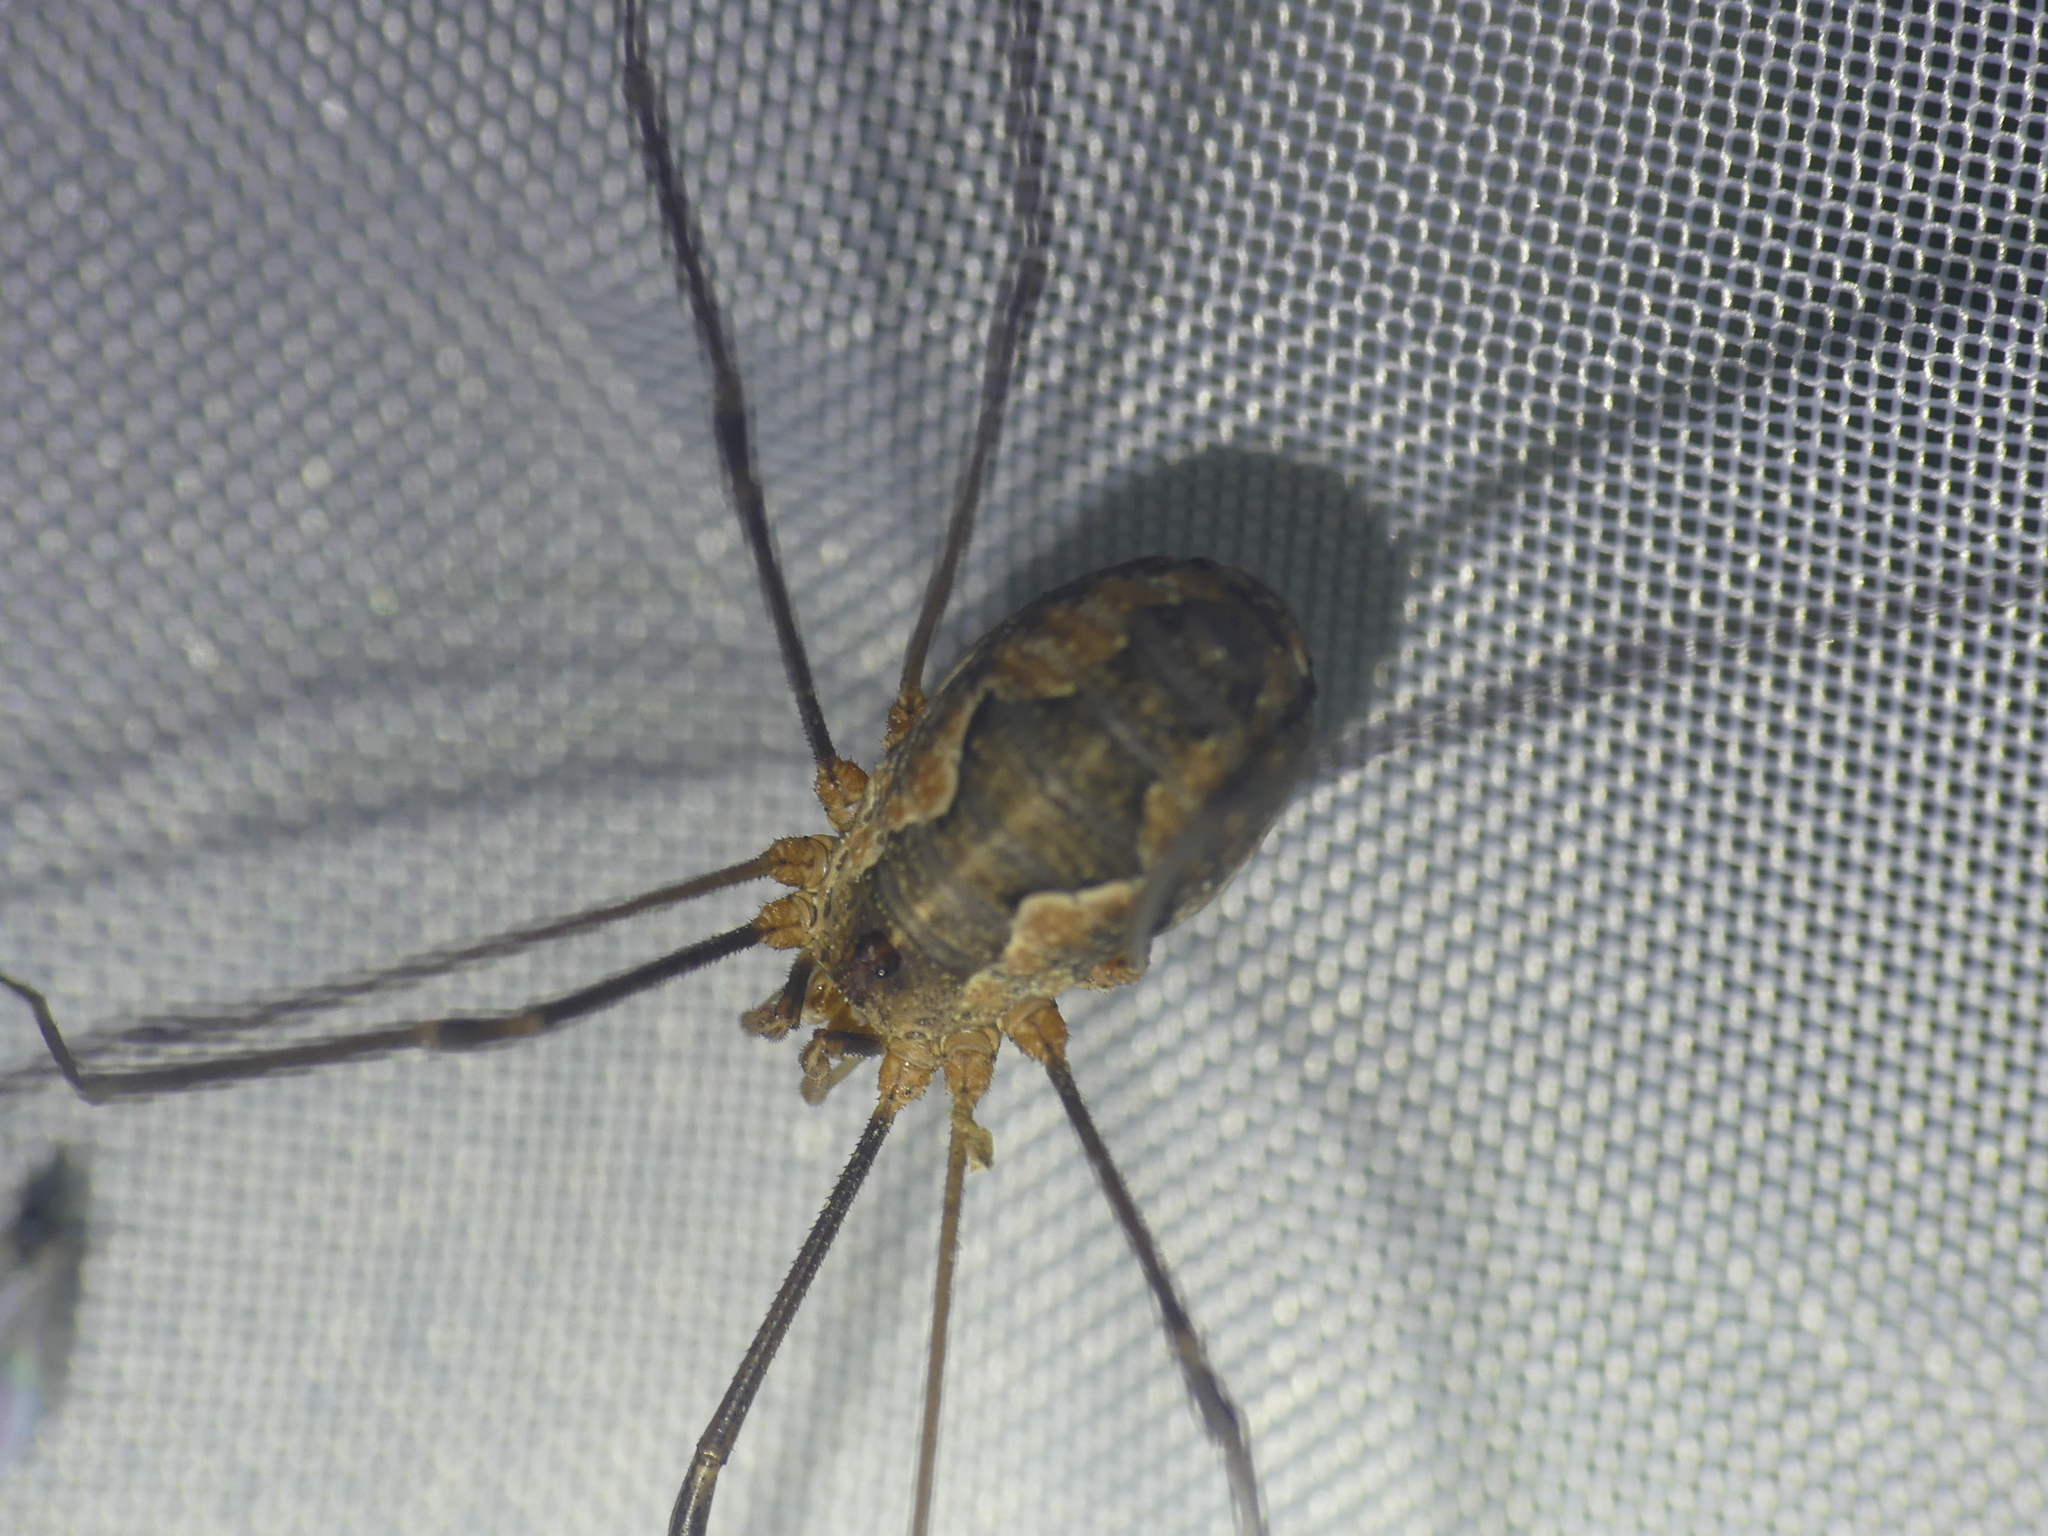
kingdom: Animalia
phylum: Arthropoda
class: Arachnida
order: Opiliones
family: Phalangiidae
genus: Phalangium
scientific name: Phalangium opilio
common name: Daddy longleg
